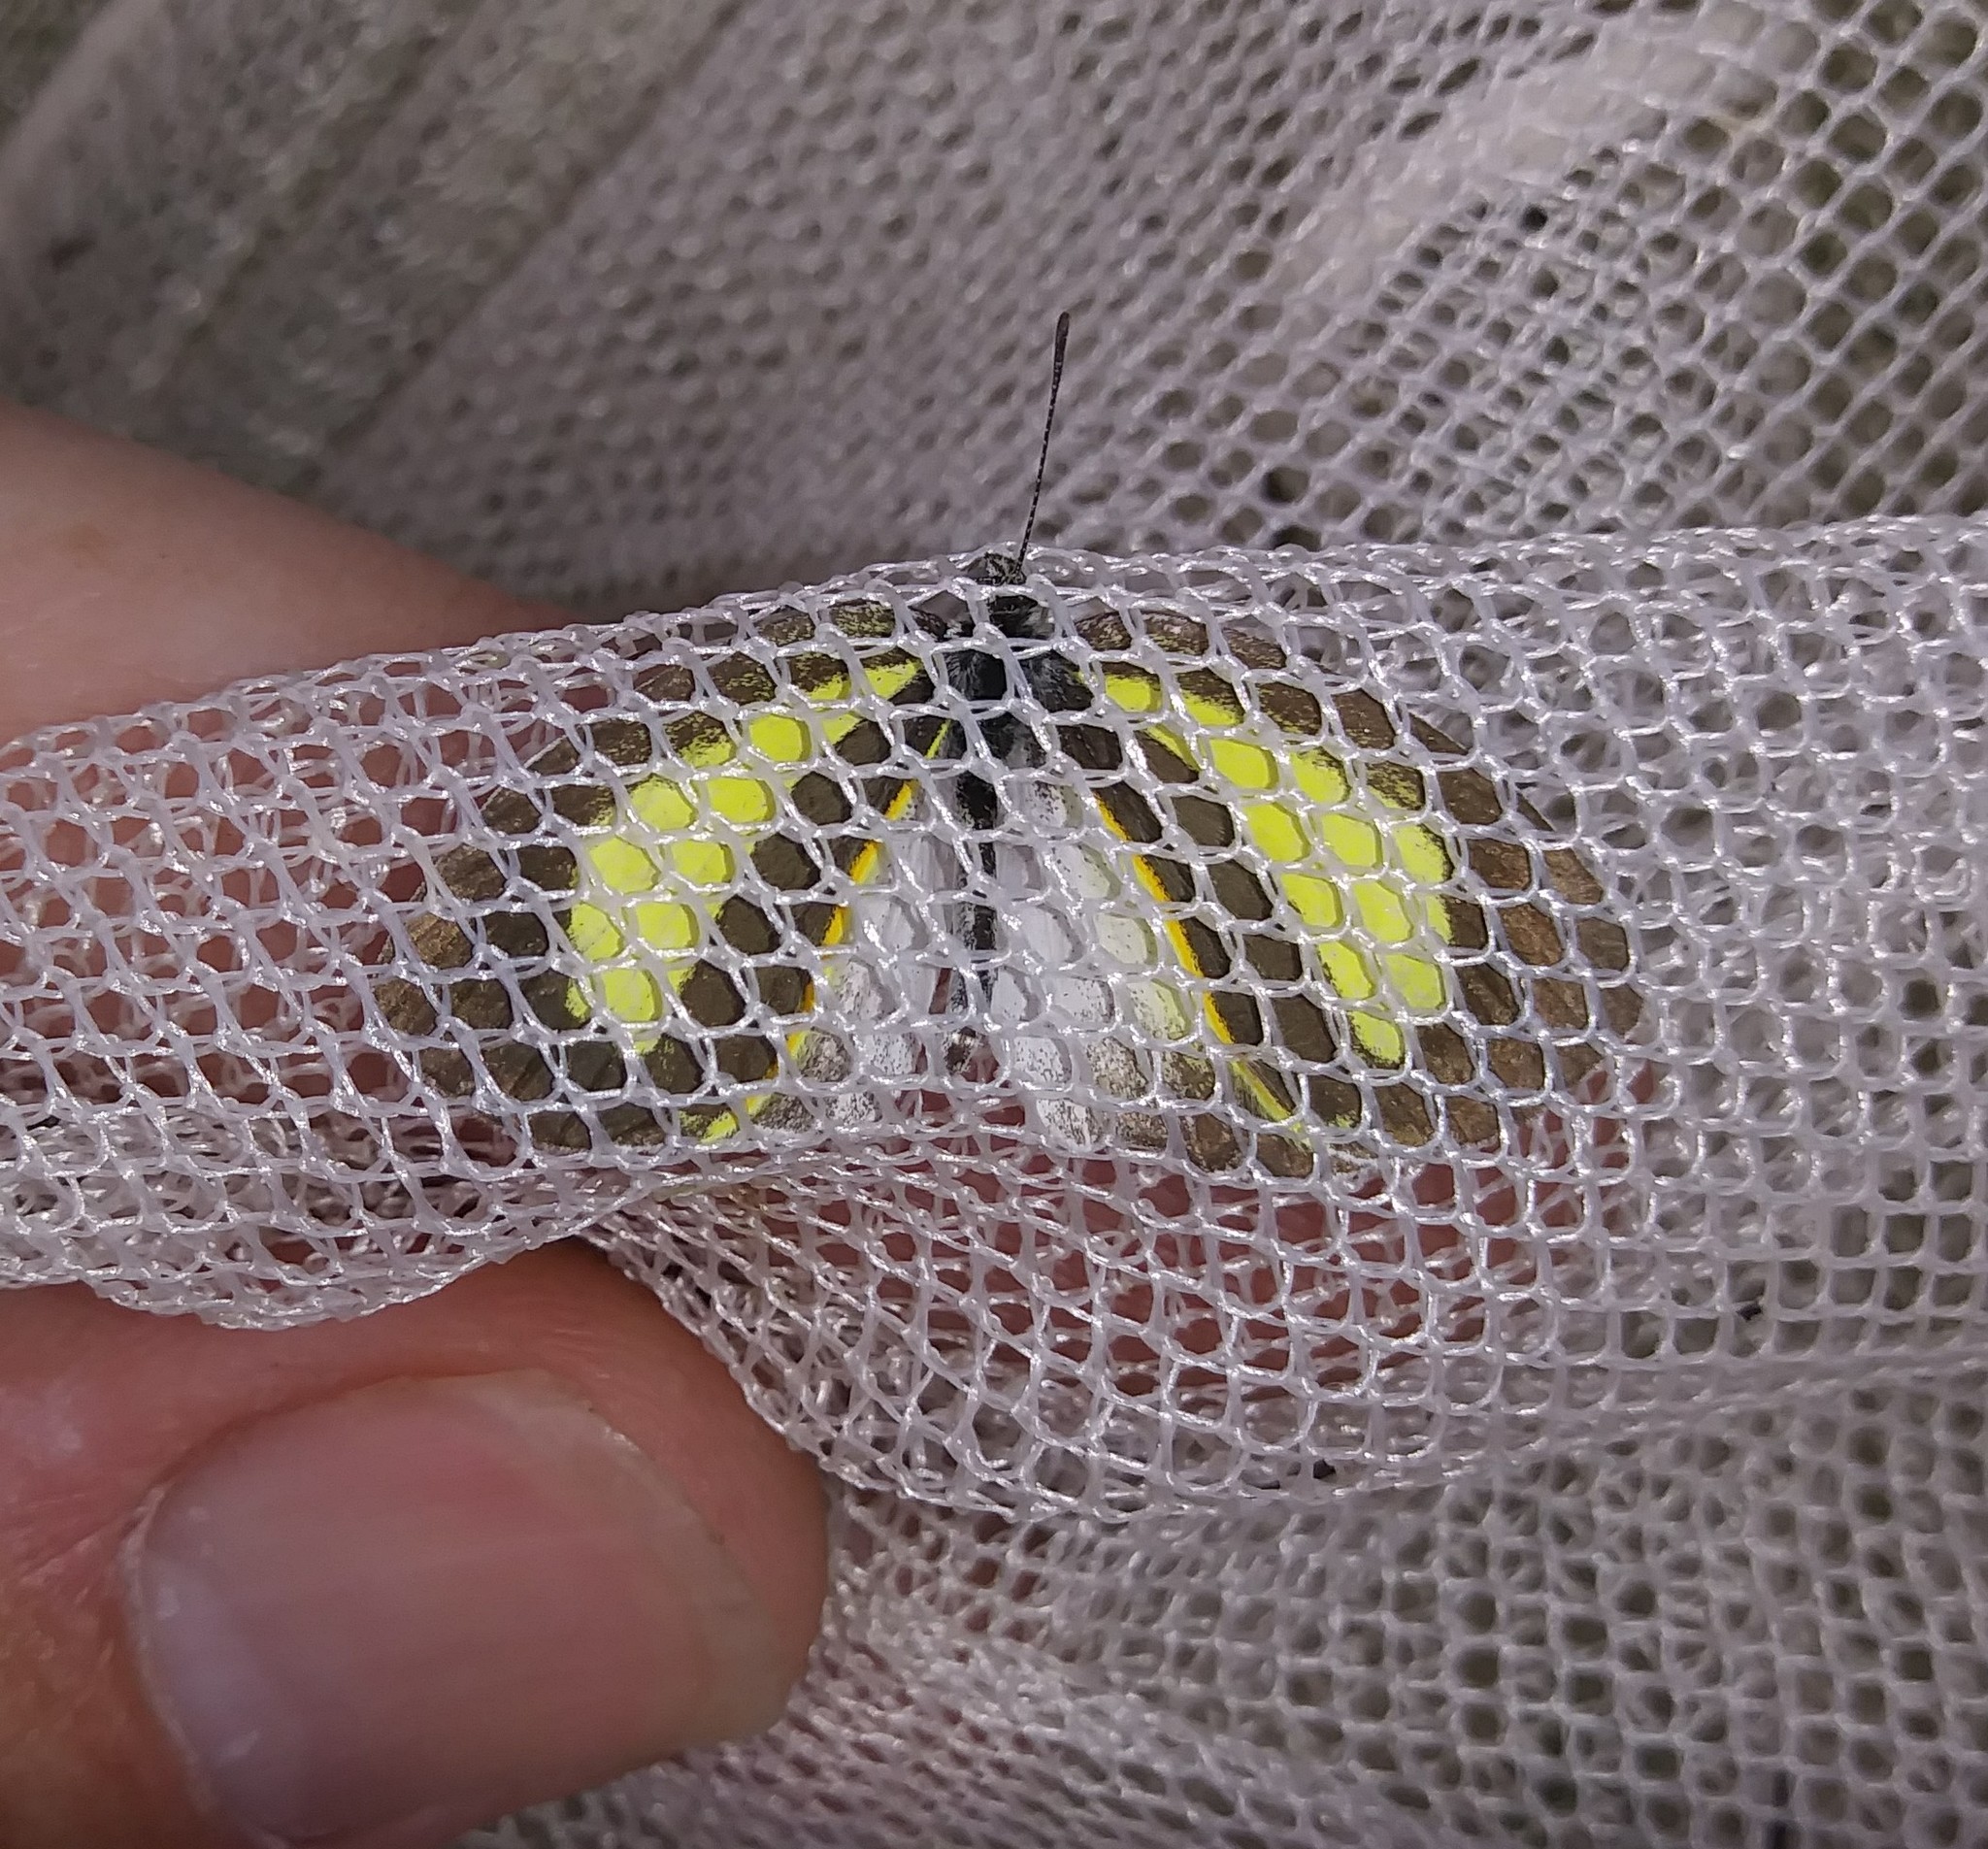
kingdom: Animalia
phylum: Arthropoda
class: Insecta
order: Lepidoptera
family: Pieridae
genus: Eurema
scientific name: Eurema daira
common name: Barred sulphur
